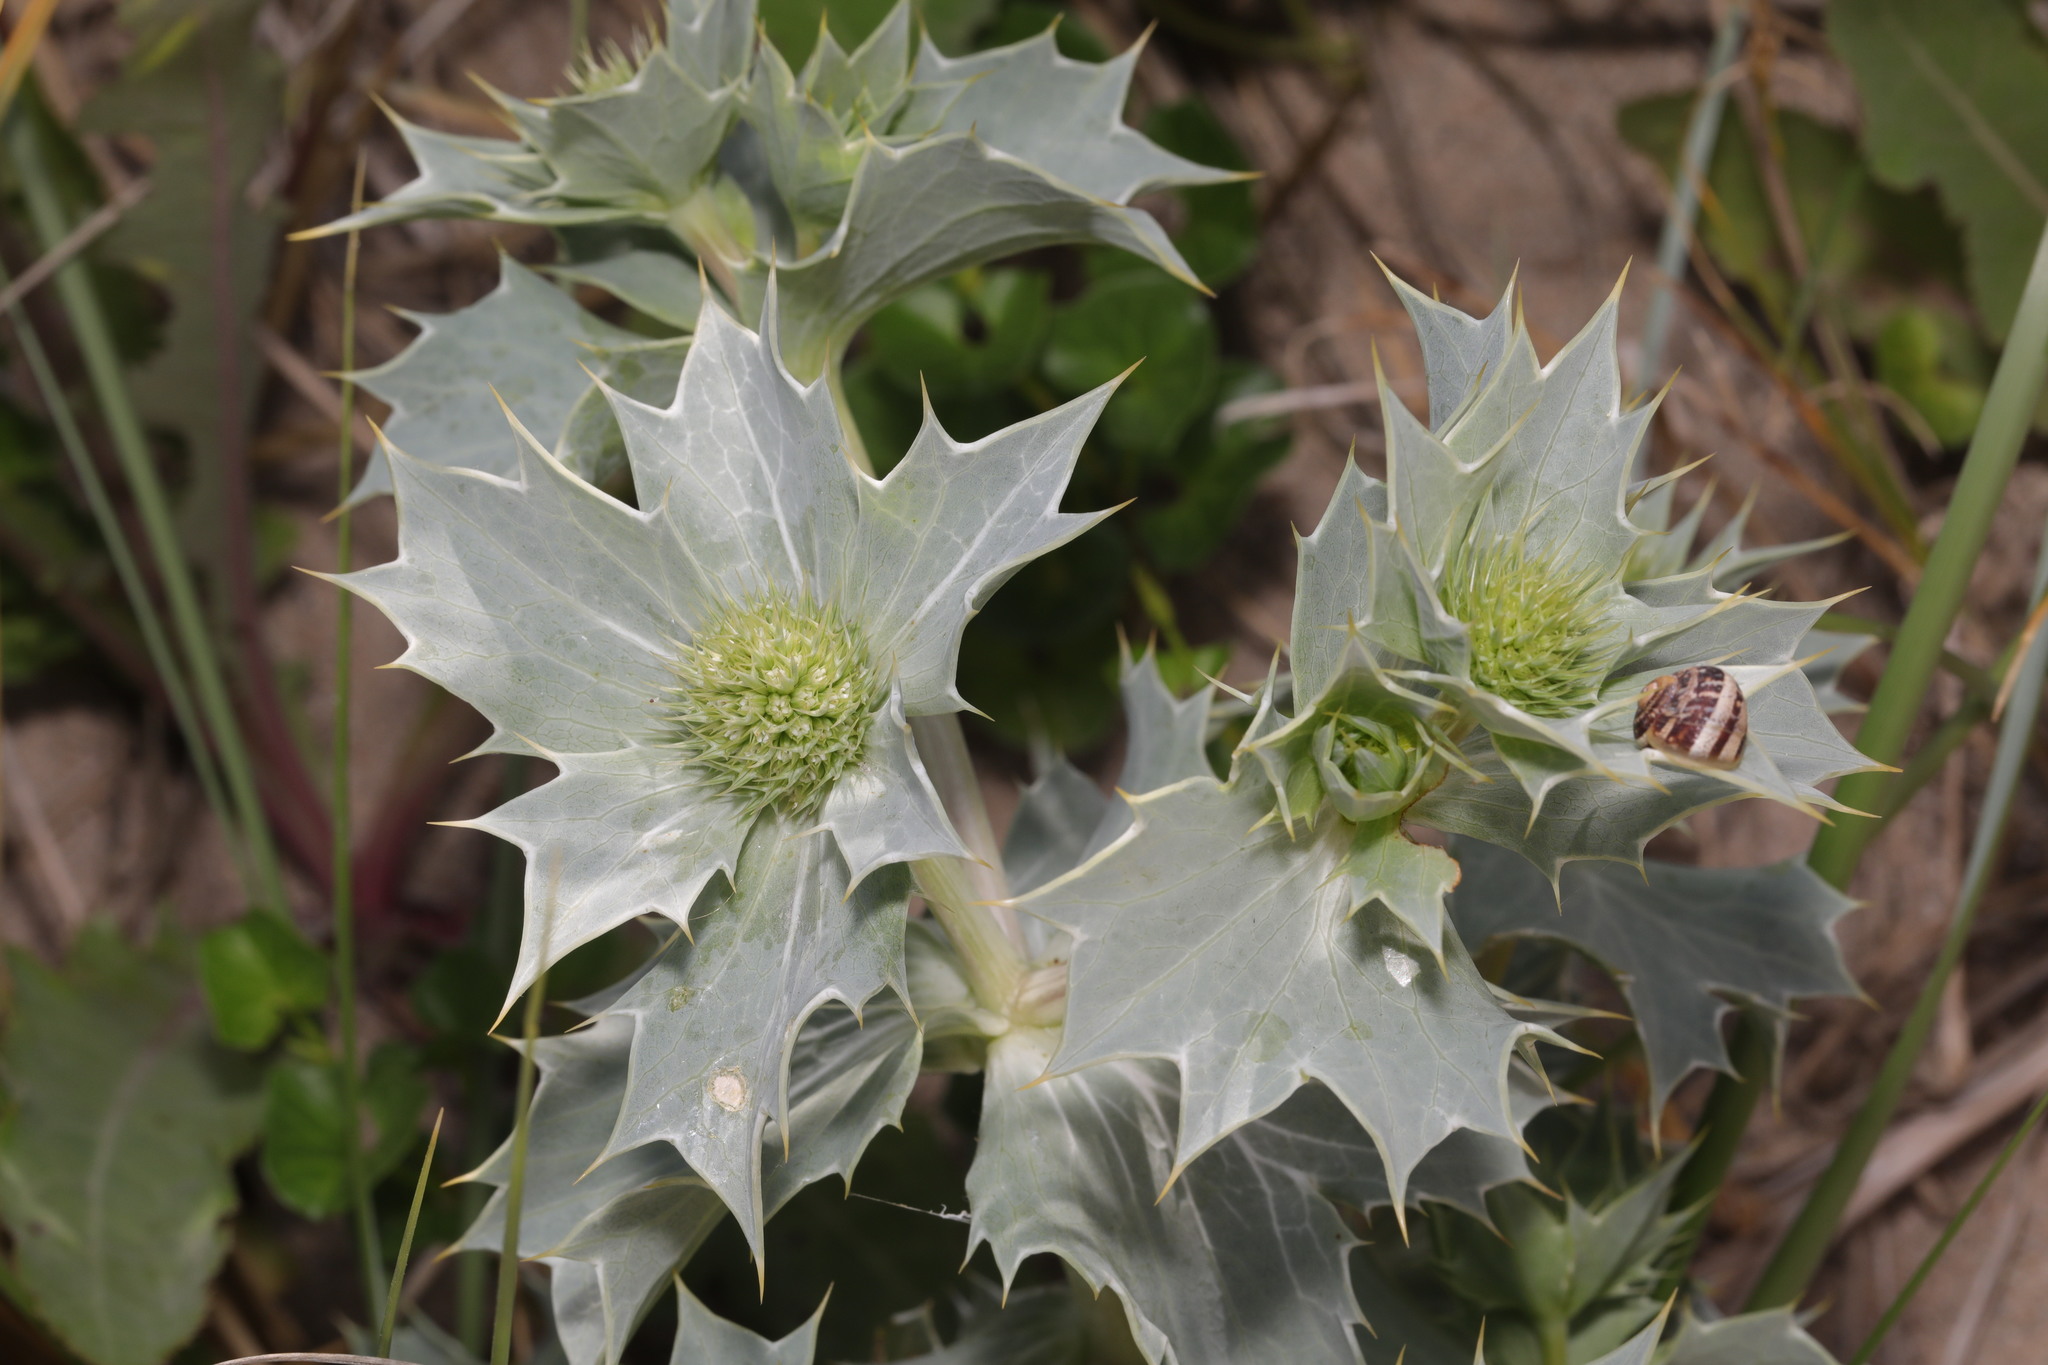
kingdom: Plantae
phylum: Tracheophyta
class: Magnoliopsida
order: Apiales
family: Apiaceae
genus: Eryngium
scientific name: Eryngium maritimum
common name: Sea-holly
